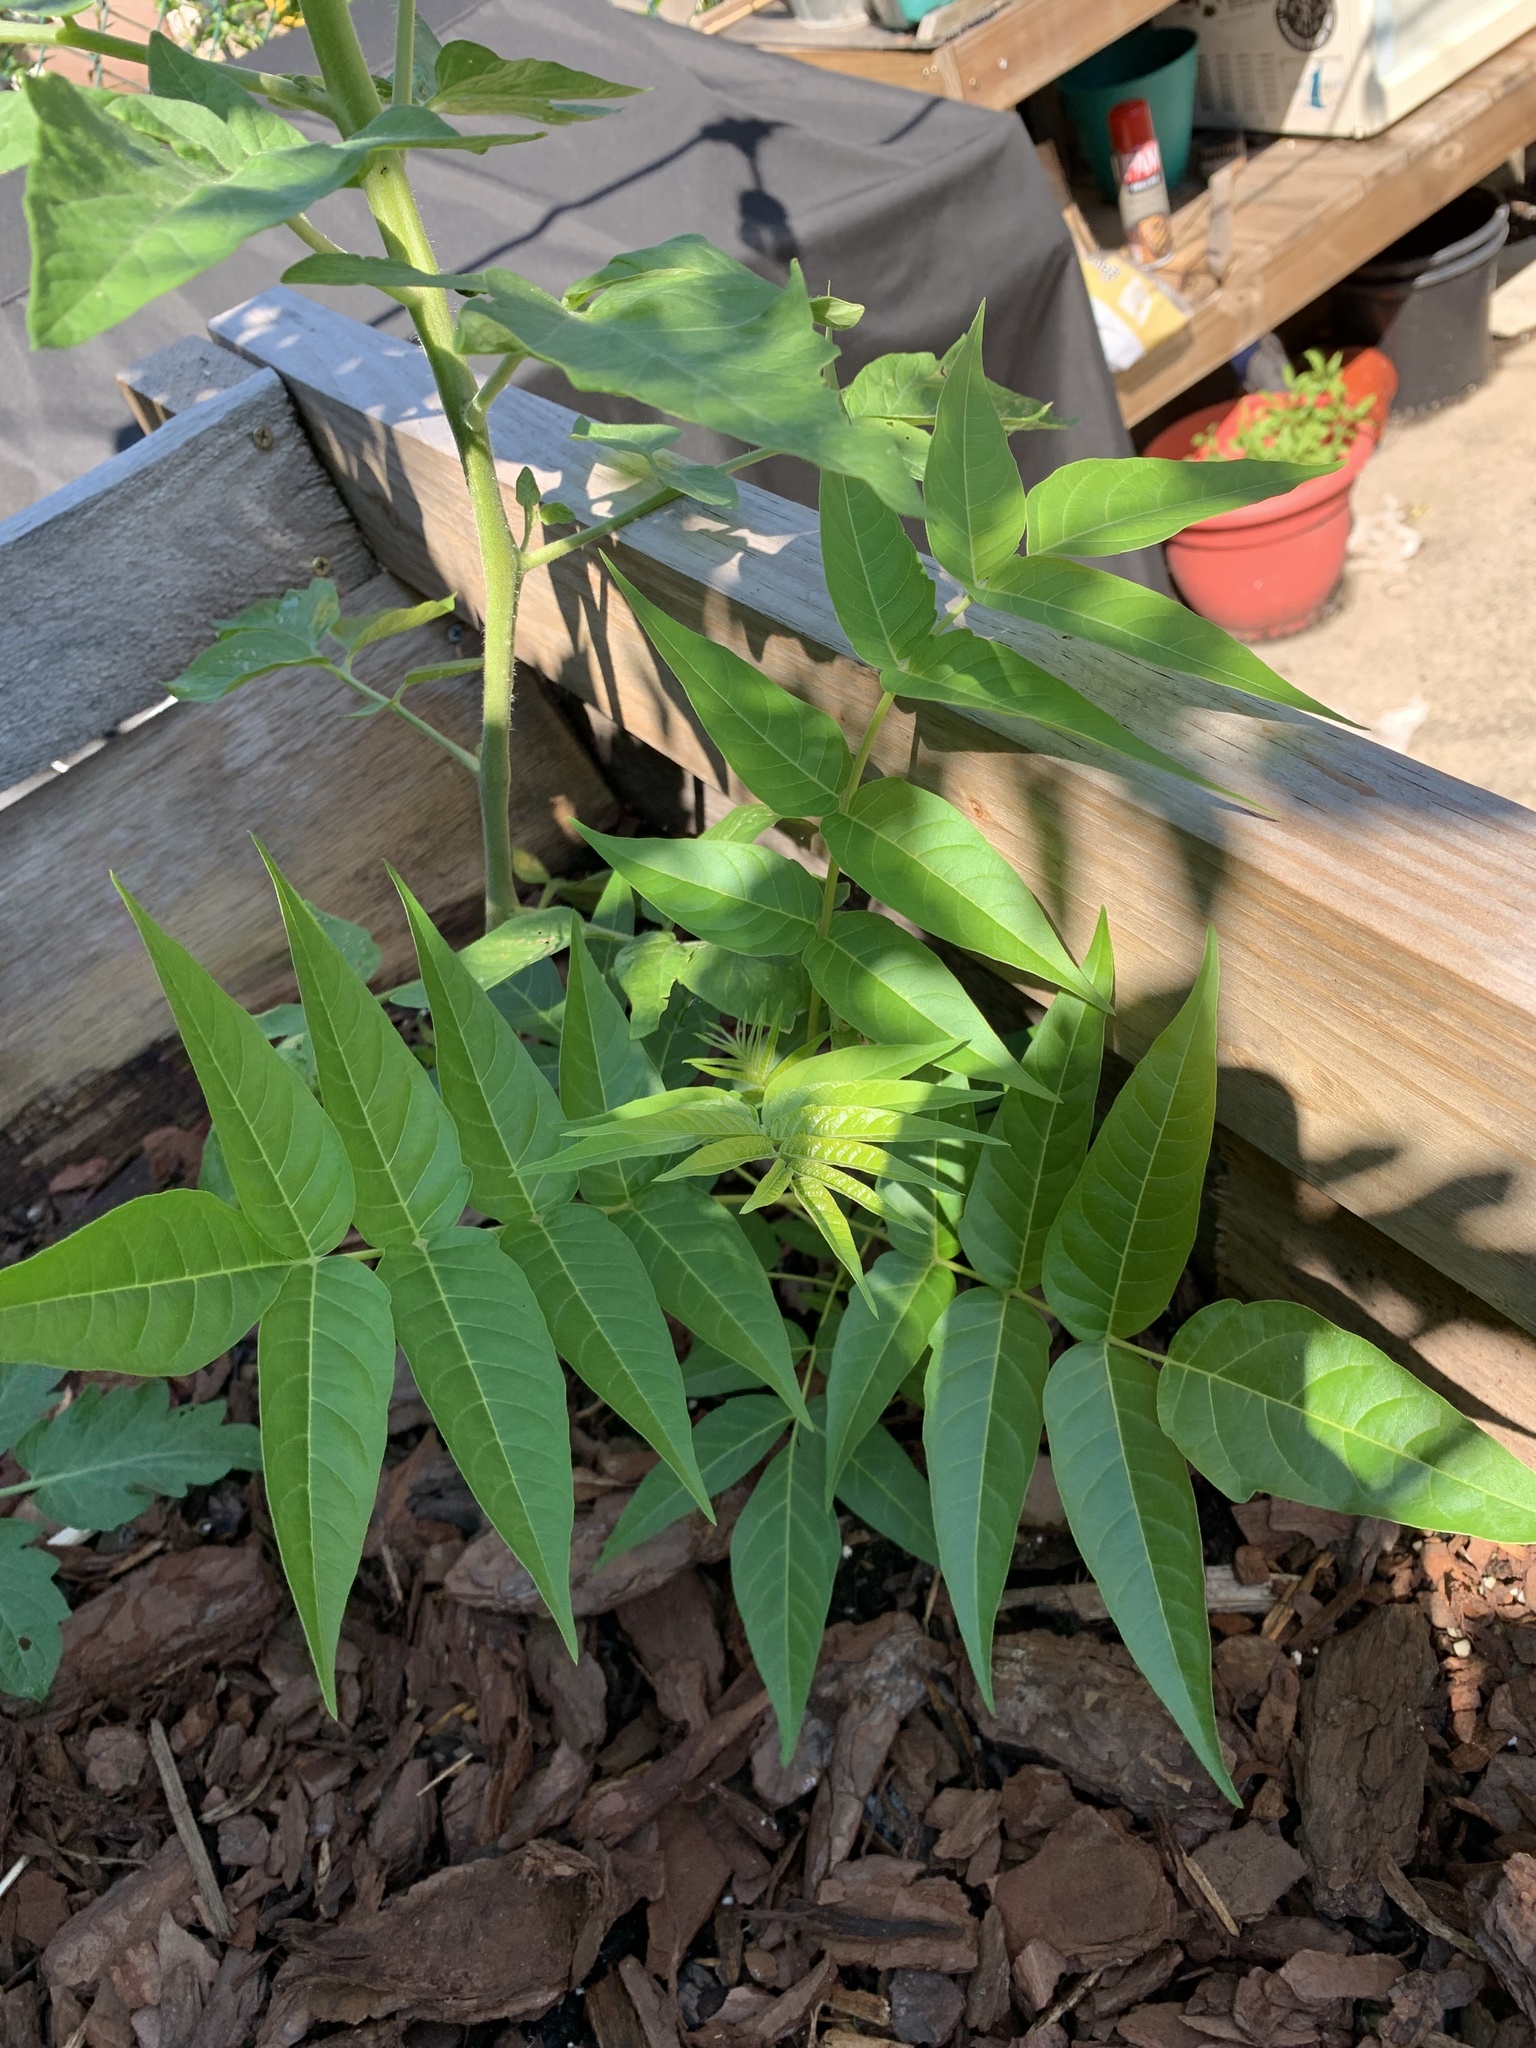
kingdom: Plantae
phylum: Tracheophyta
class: Magnoliopsida
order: Sapindales
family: Simaroubaceae
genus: Ailanthus
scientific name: Ailanthus altissima
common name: Tree-of-heaven
